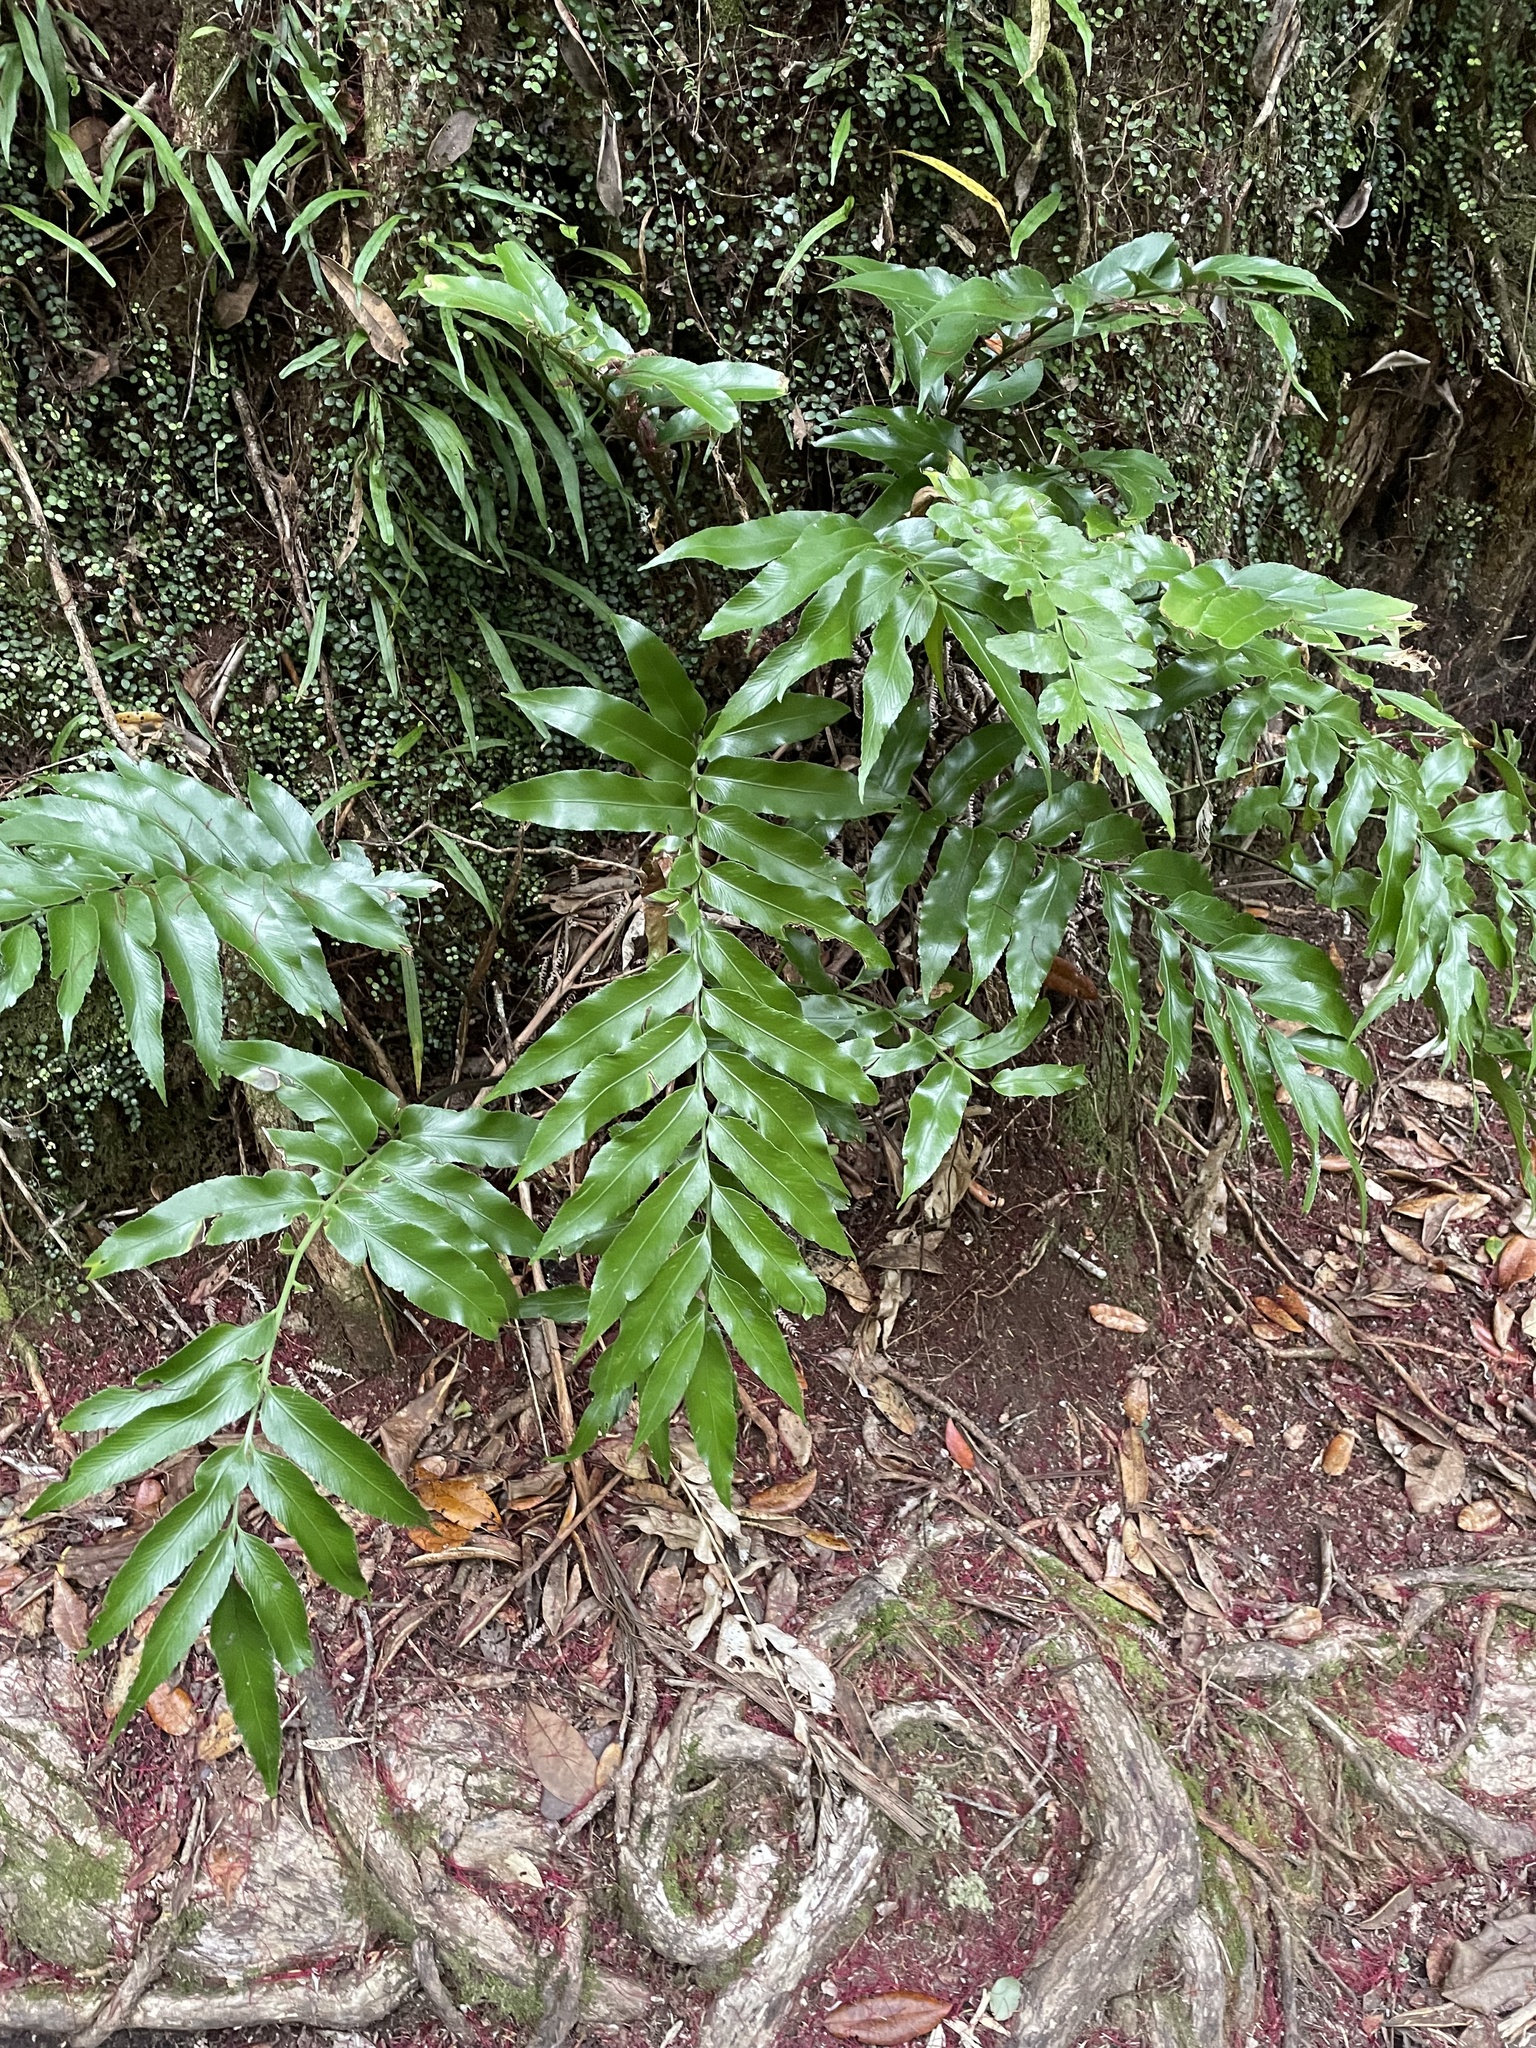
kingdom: Plantae
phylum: Tracheophyta
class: Polypodiopsida
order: Polypodiales
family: Aspleniaceae
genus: Asplenium
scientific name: Asplenium oblongifolium
